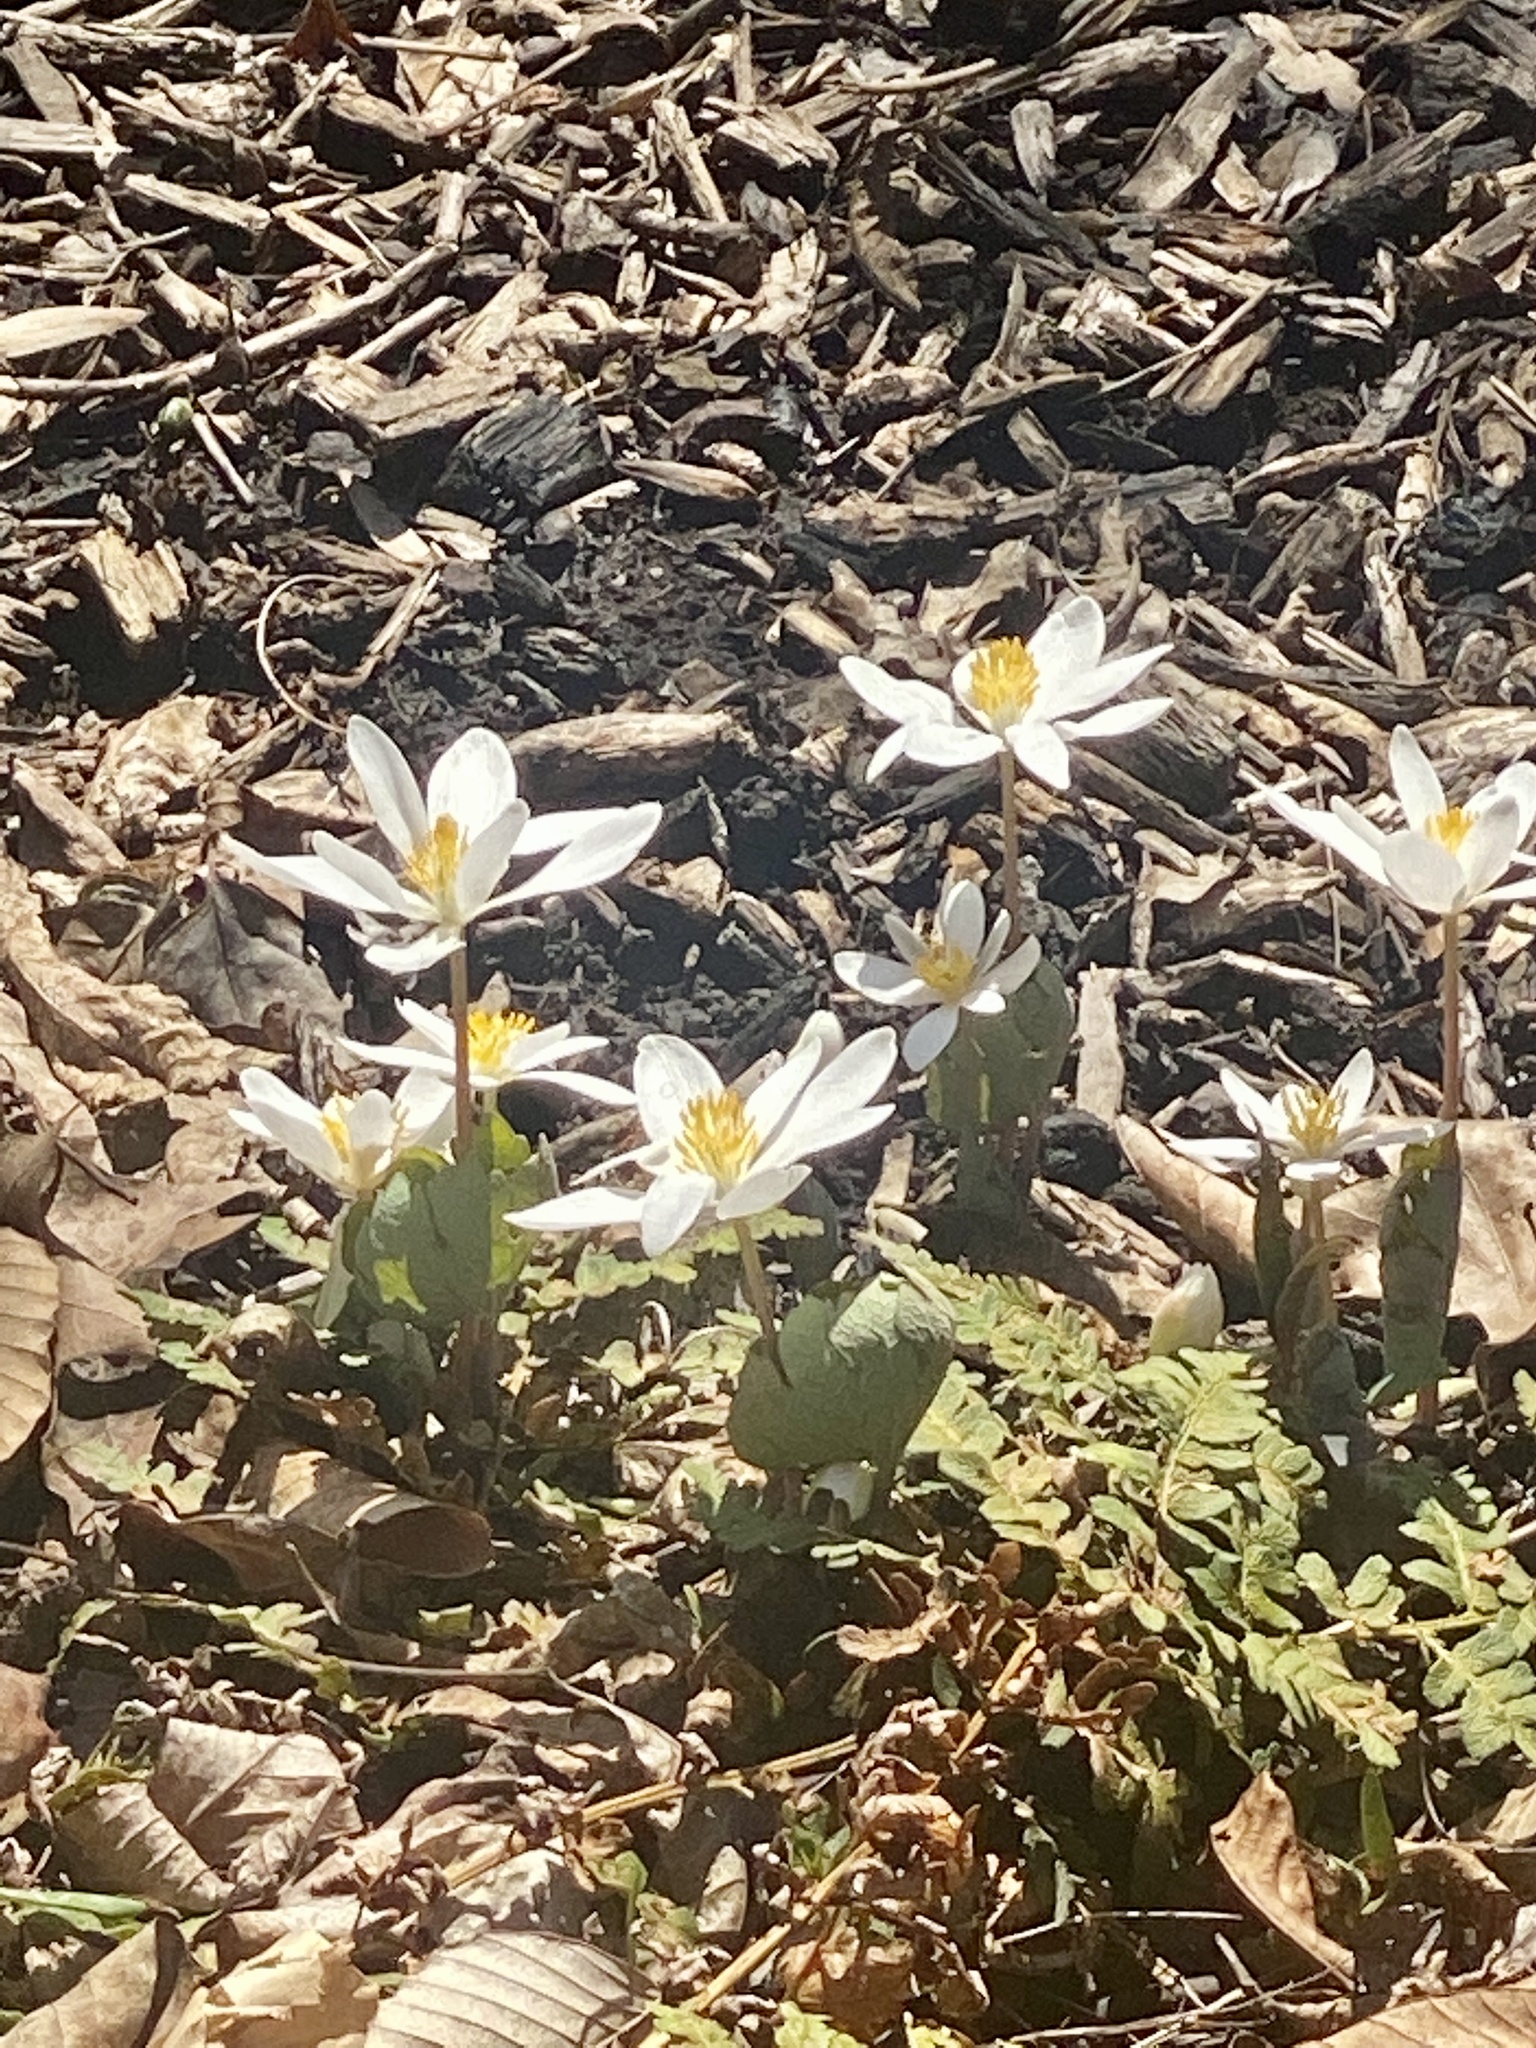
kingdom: Plantae
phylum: Tracheophyta
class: Magnoliopsida
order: Ranunculales
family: Papaveraceae
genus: Sanguinaria
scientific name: Sanguinaria canadensis
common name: Bloodroot
